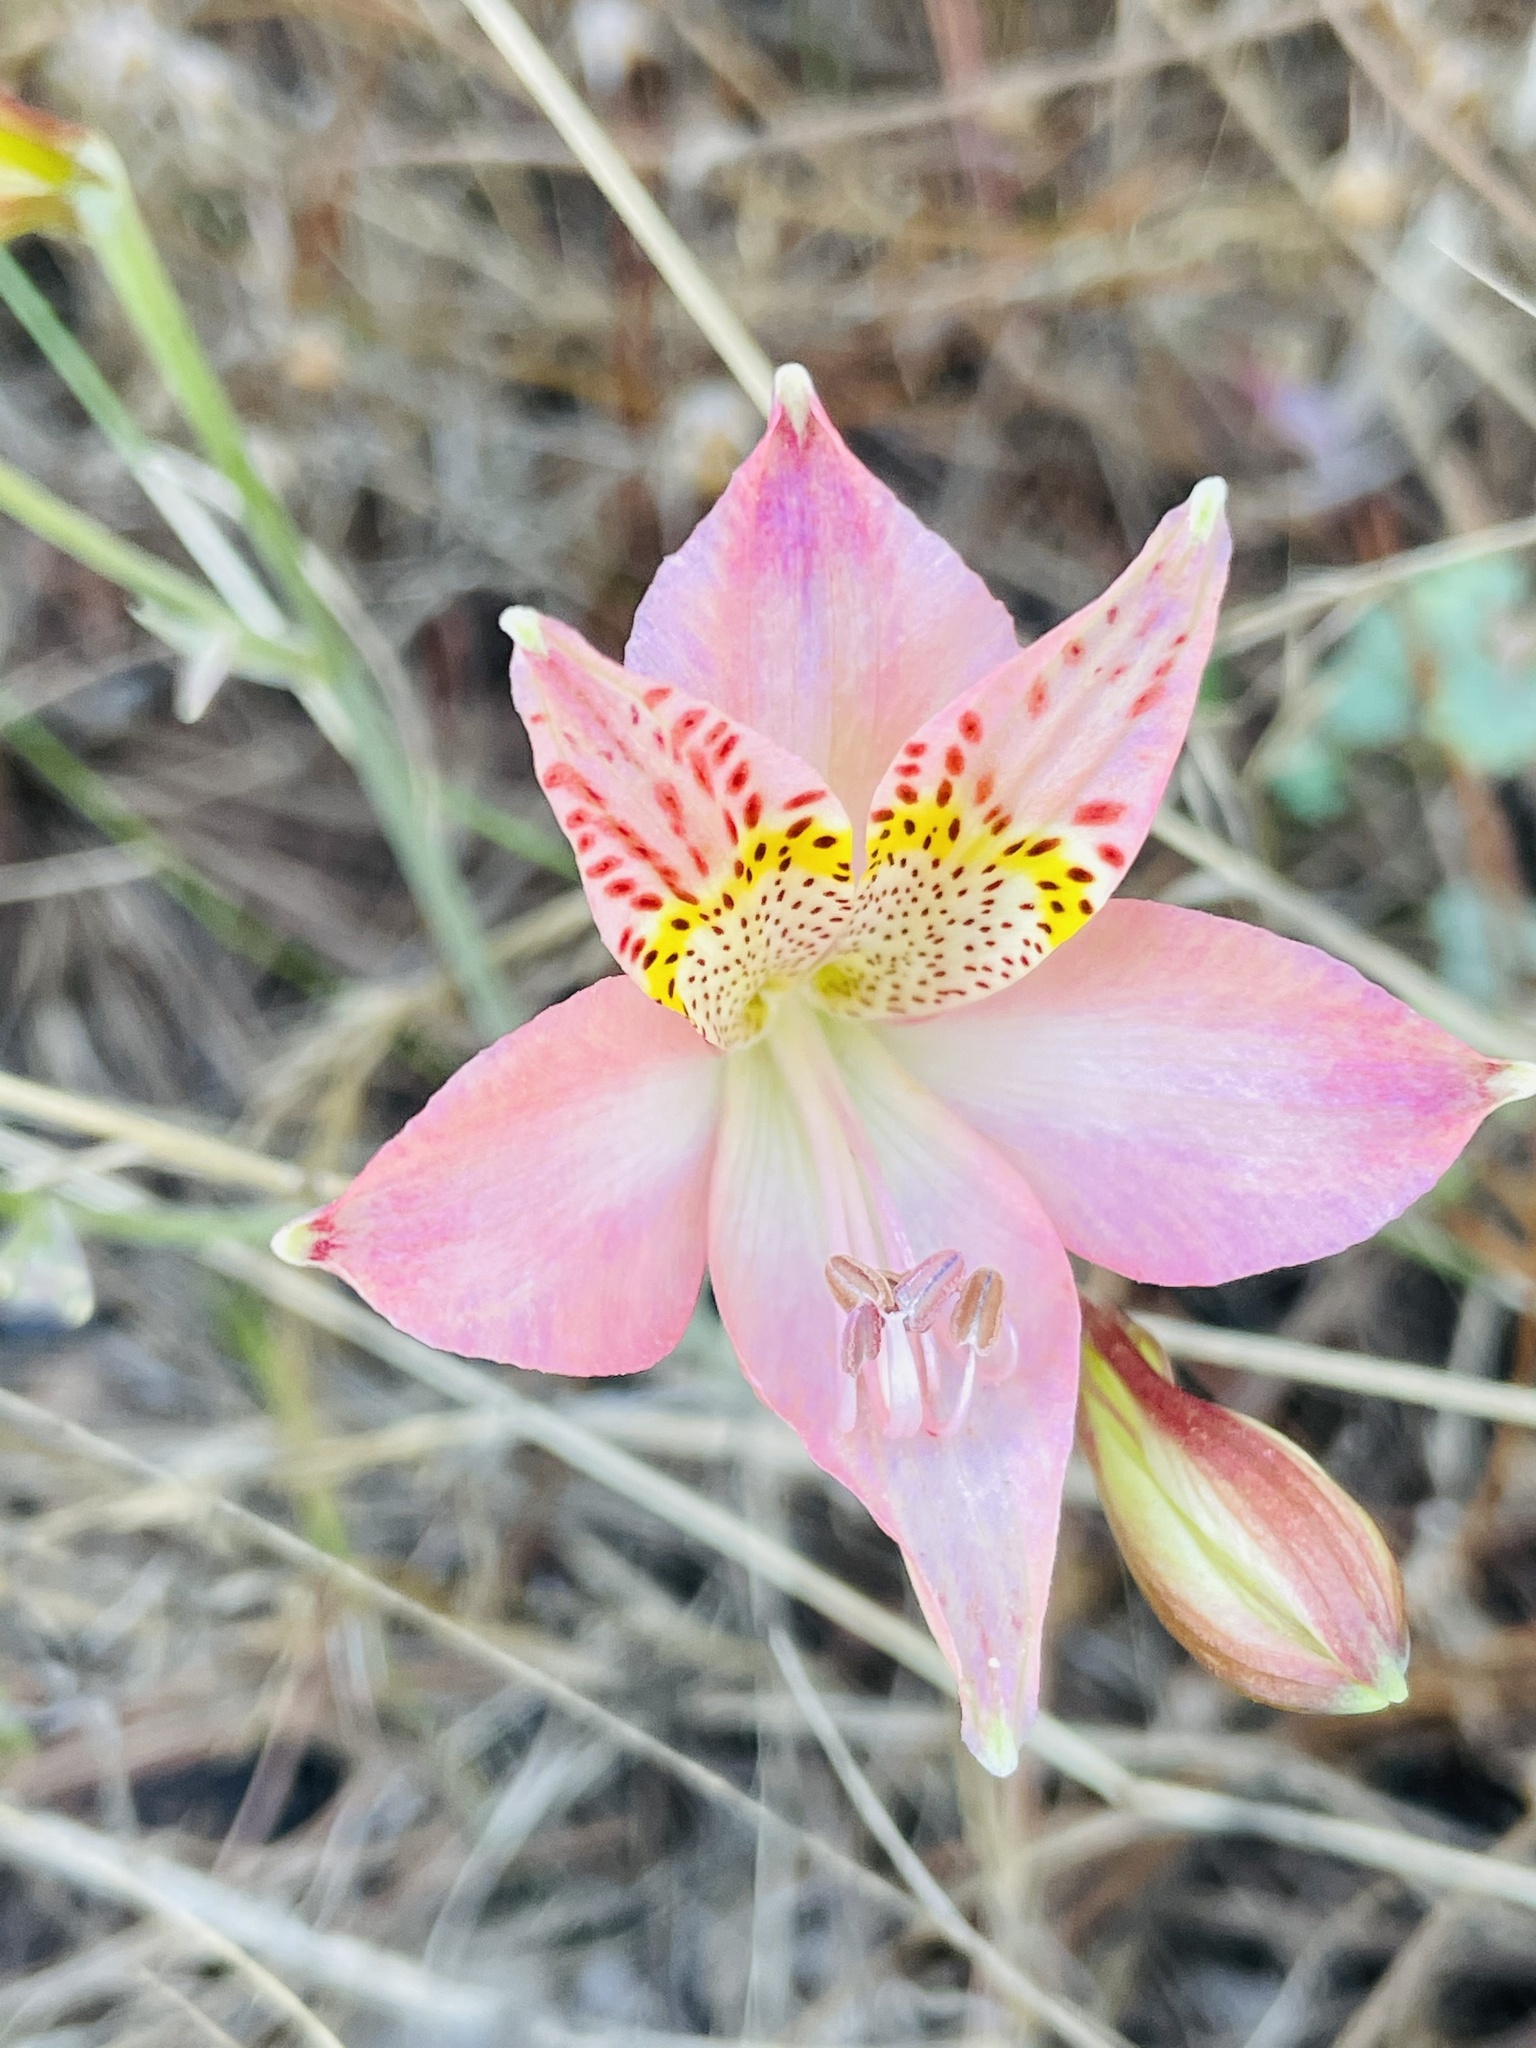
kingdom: Plantae
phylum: Tracheophyta
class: Liliopsida
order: Liliales
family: Alstroemeriaceae
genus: Alstroemeria
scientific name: Alstroemeria hookeri
